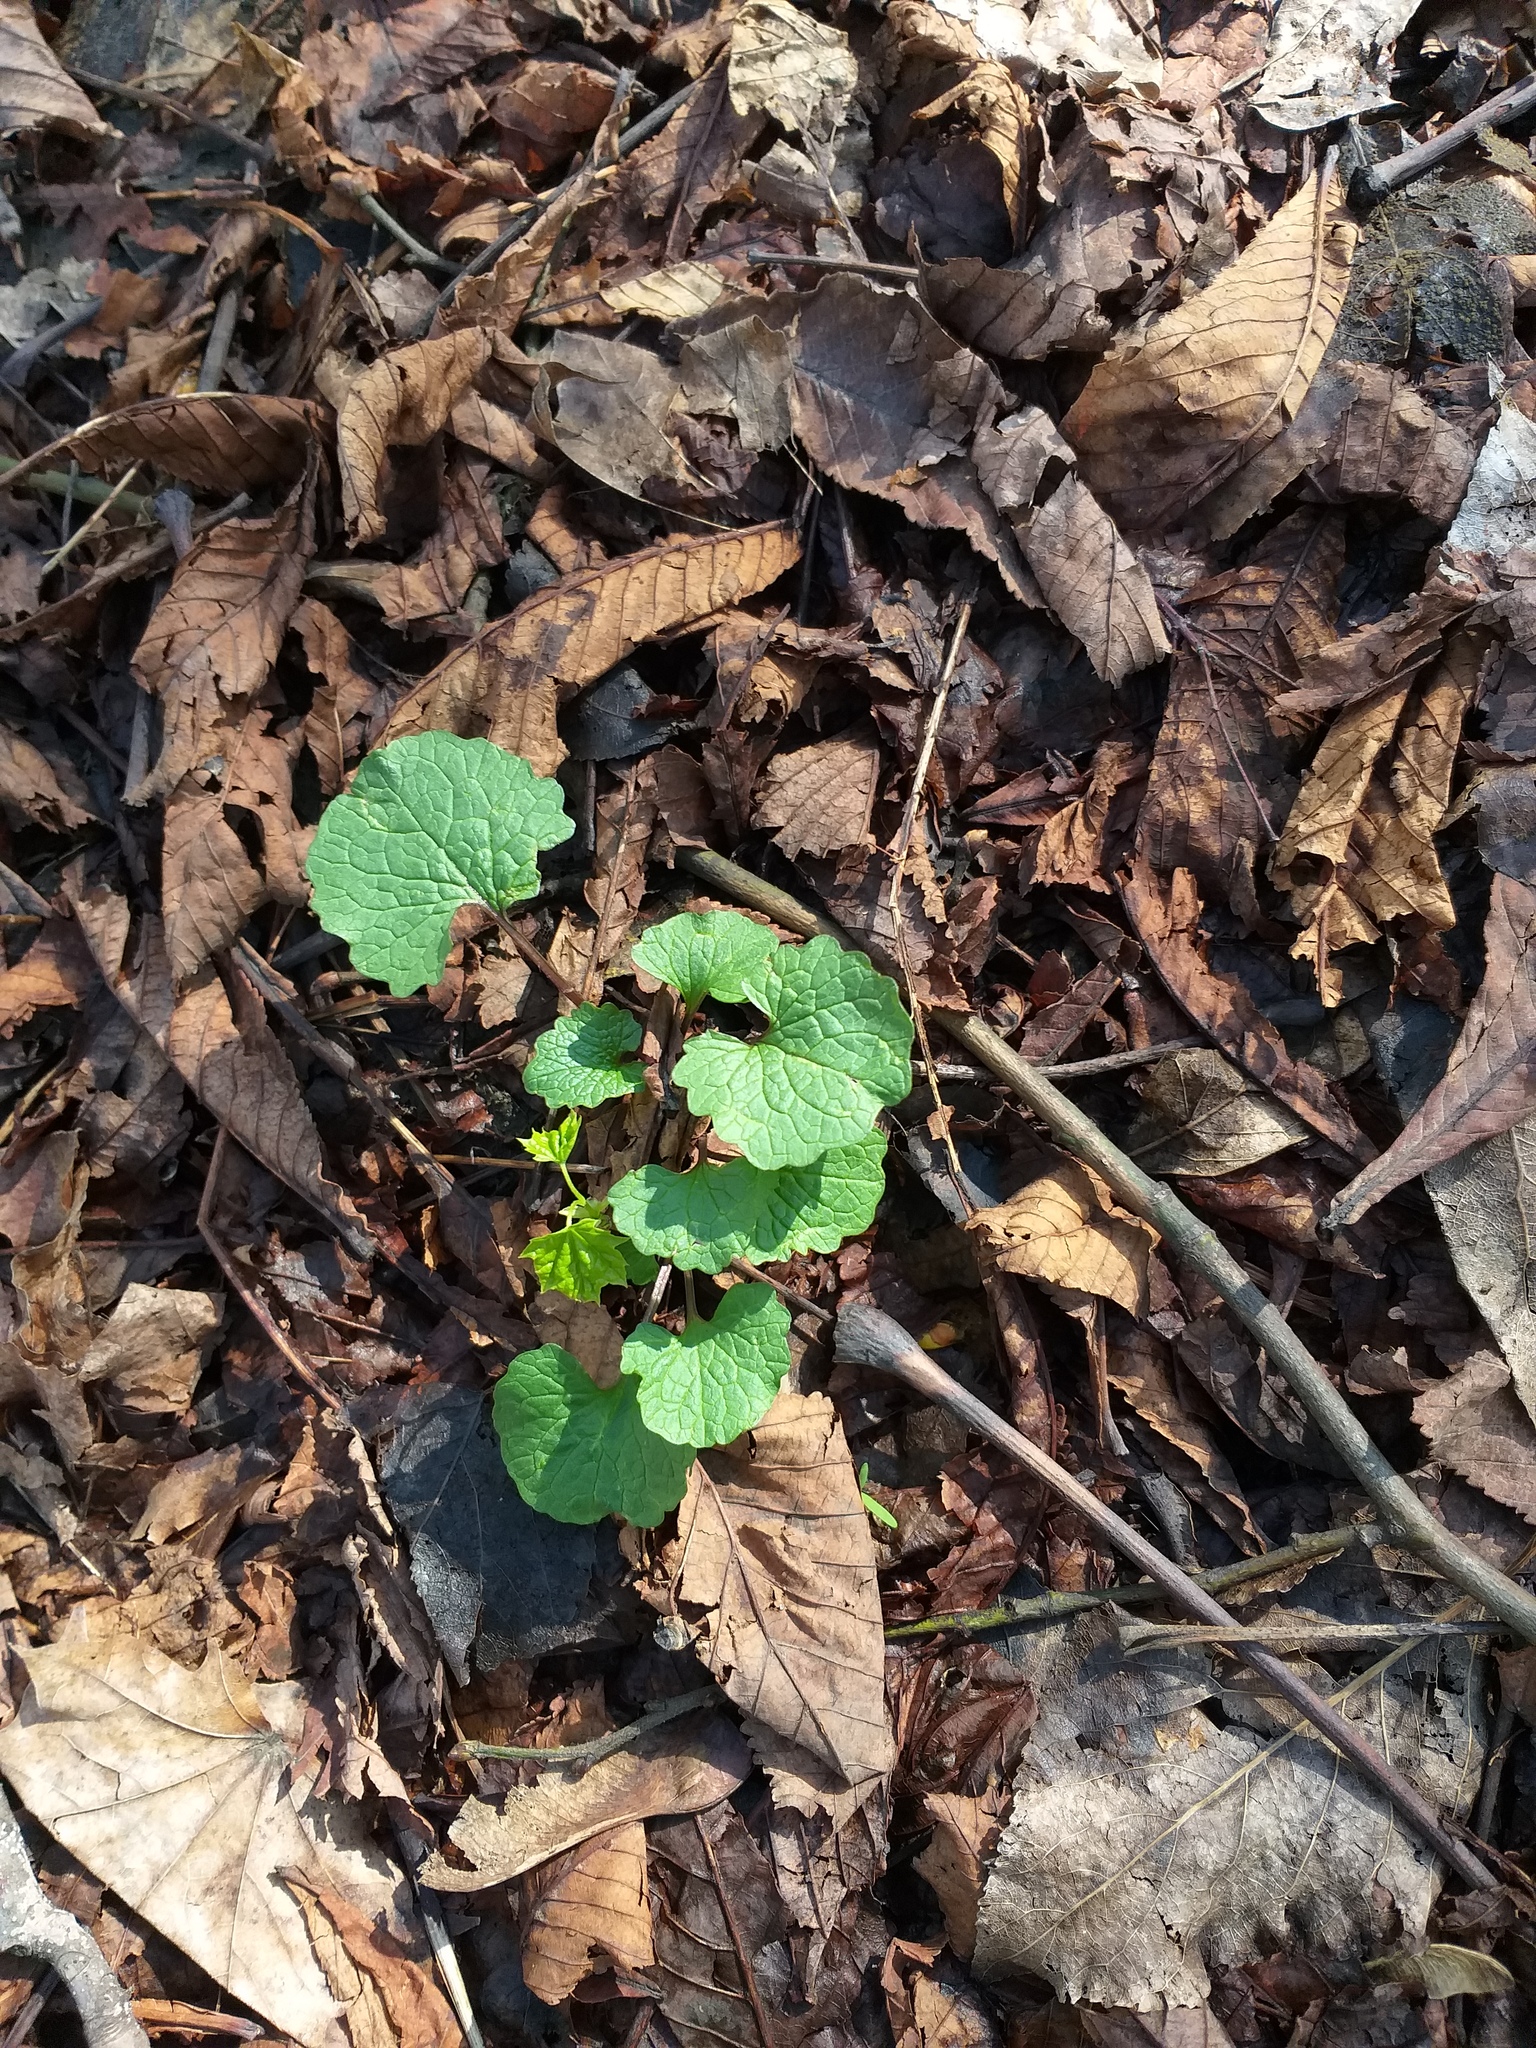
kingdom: Plantae
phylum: Tracheophyta
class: Magnoliopsida
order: Brassicales
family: Brassicaceae
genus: Alliaria
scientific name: Alliaria petiolata
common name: Garlic mustard
